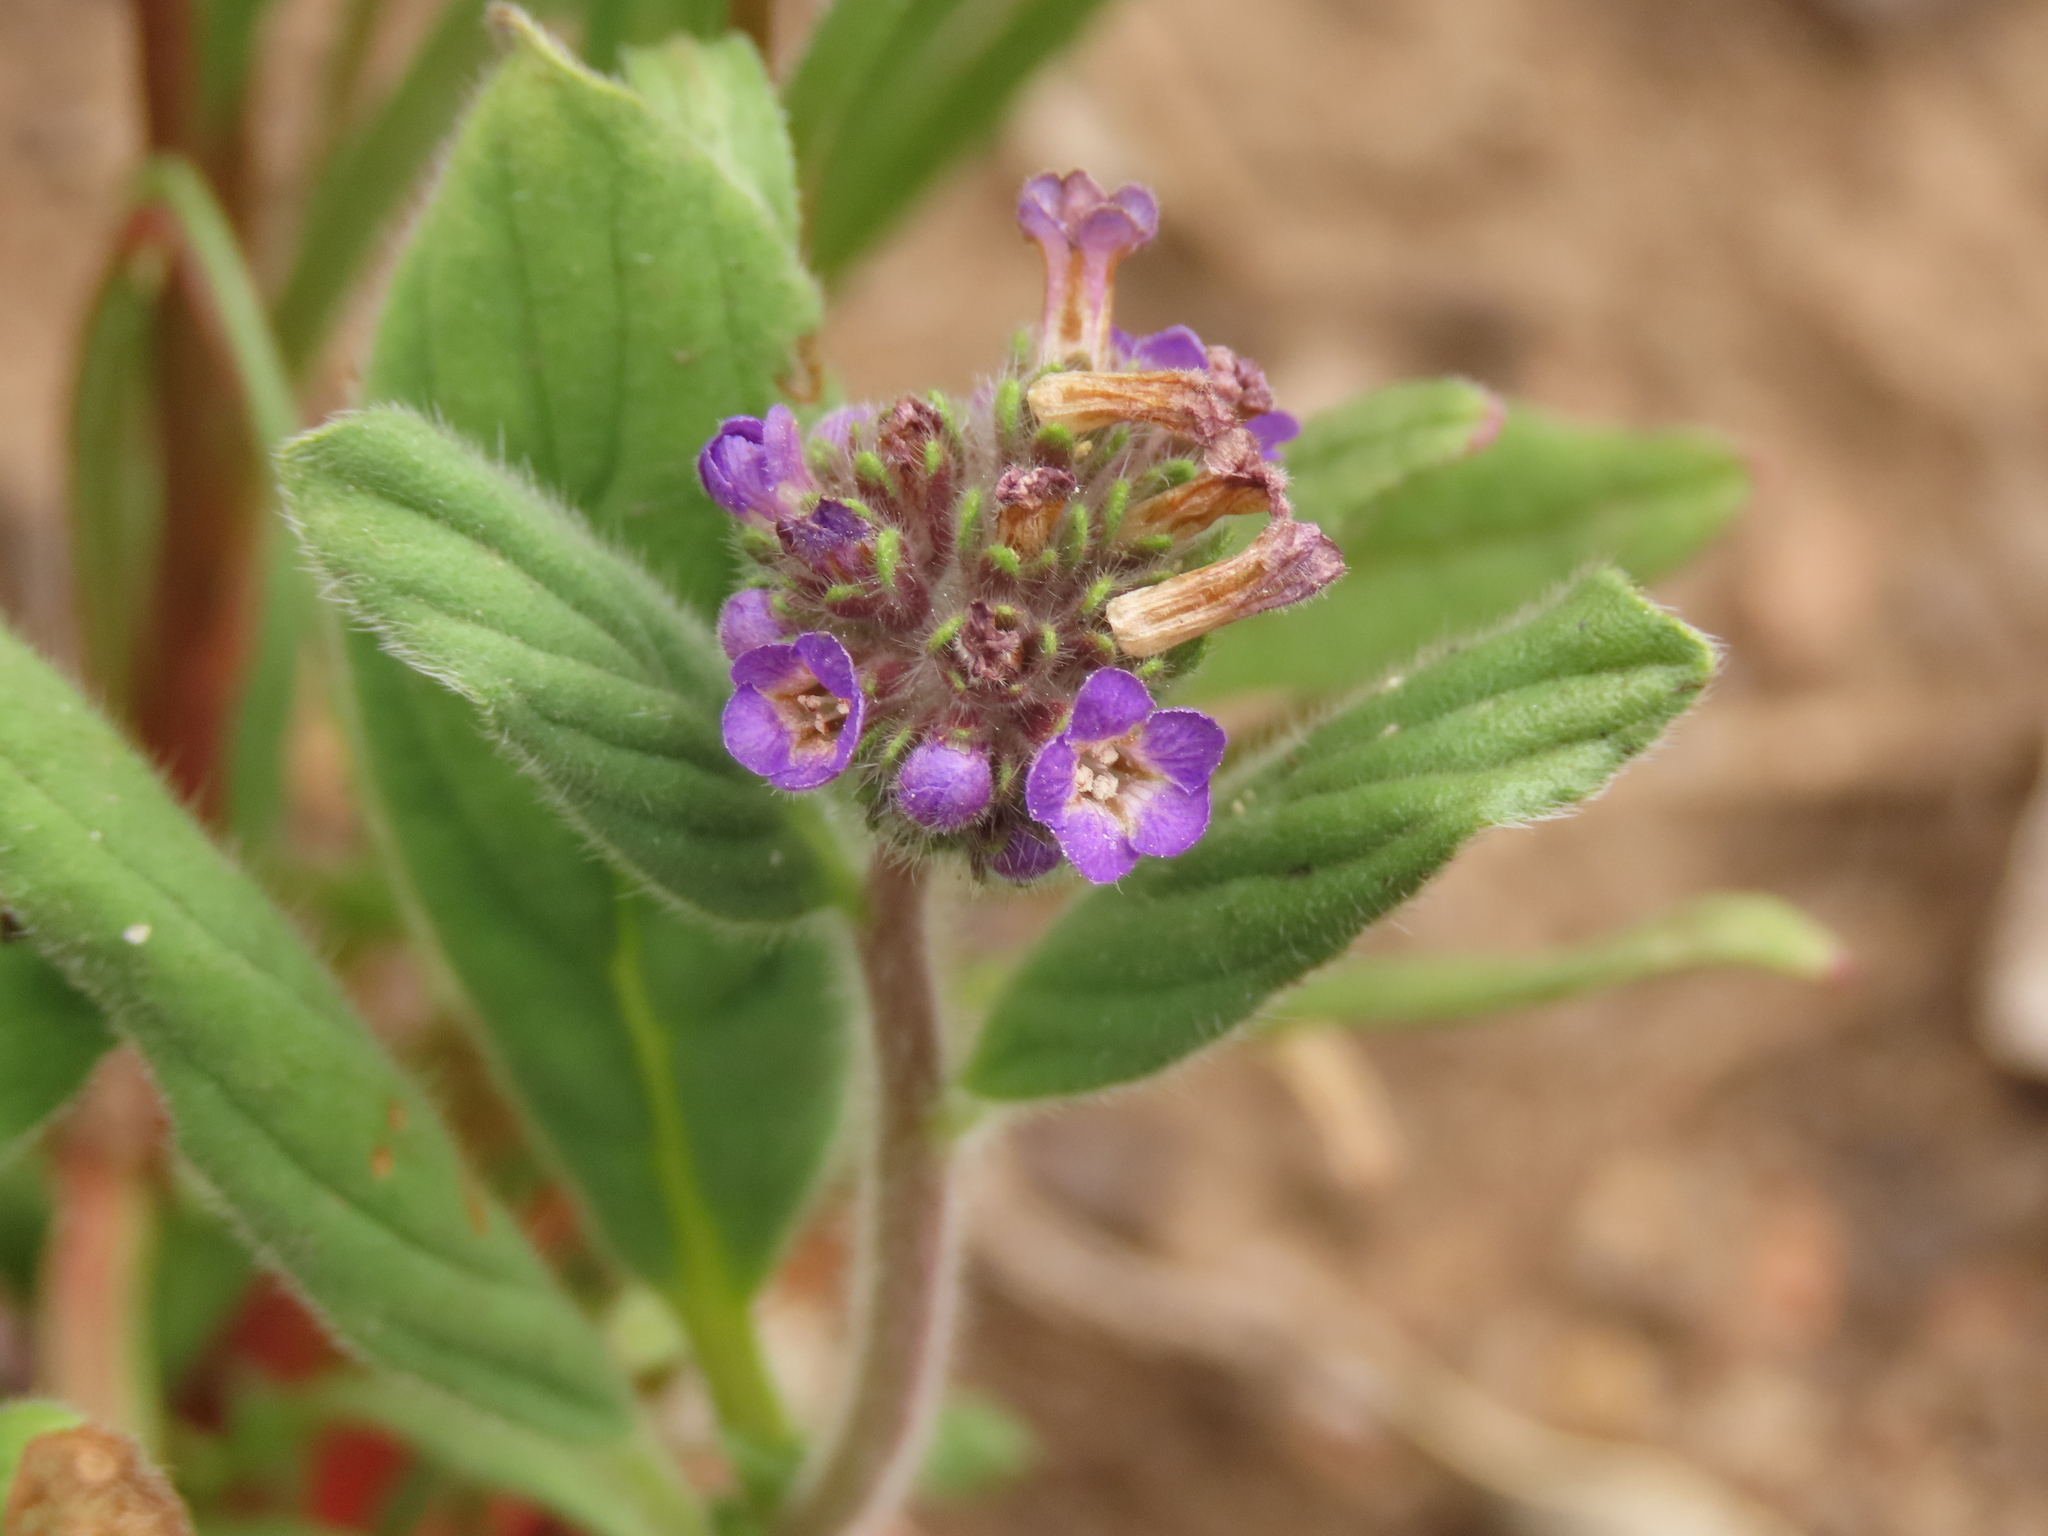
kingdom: Plantae
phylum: Tracheophyta
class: Magnoliopsida
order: Boraginales
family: Hydrophyllaceae
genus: Phacelia
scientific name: Phacelia brachyantha
